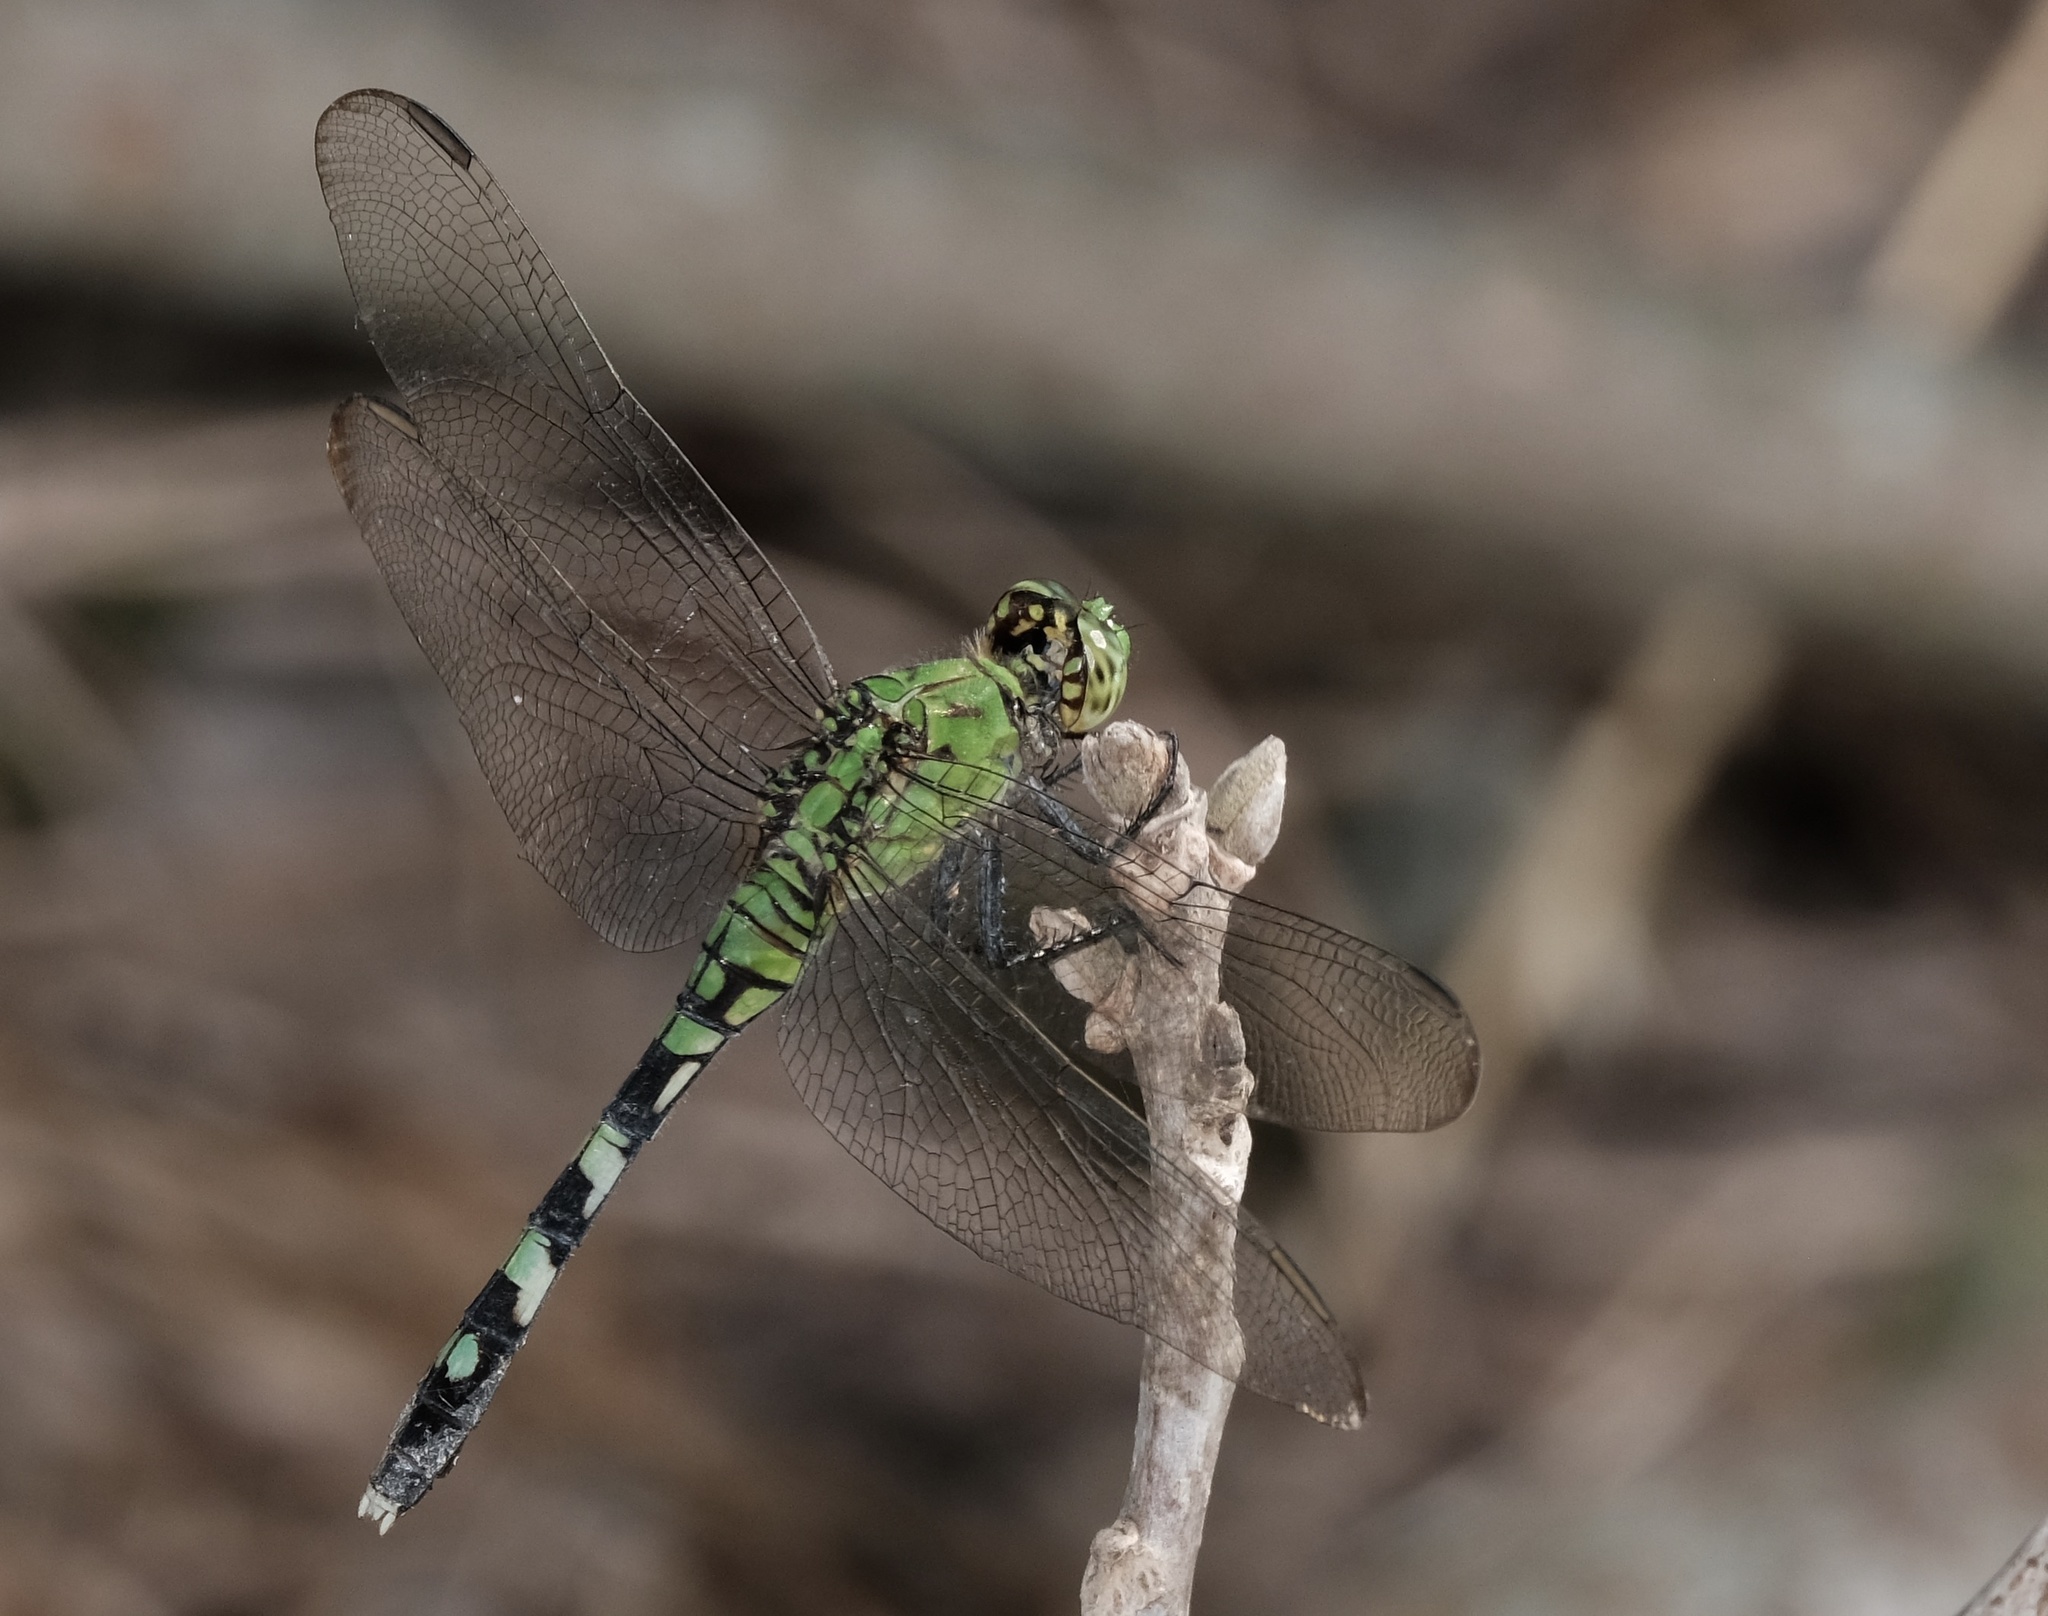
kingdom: Animalia
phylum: Arthropoda
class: Insecta
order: Odonata
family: Libellulidae
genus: Erythemis
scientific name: Erythemis simplicicollis
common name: Eastern pondhawk
